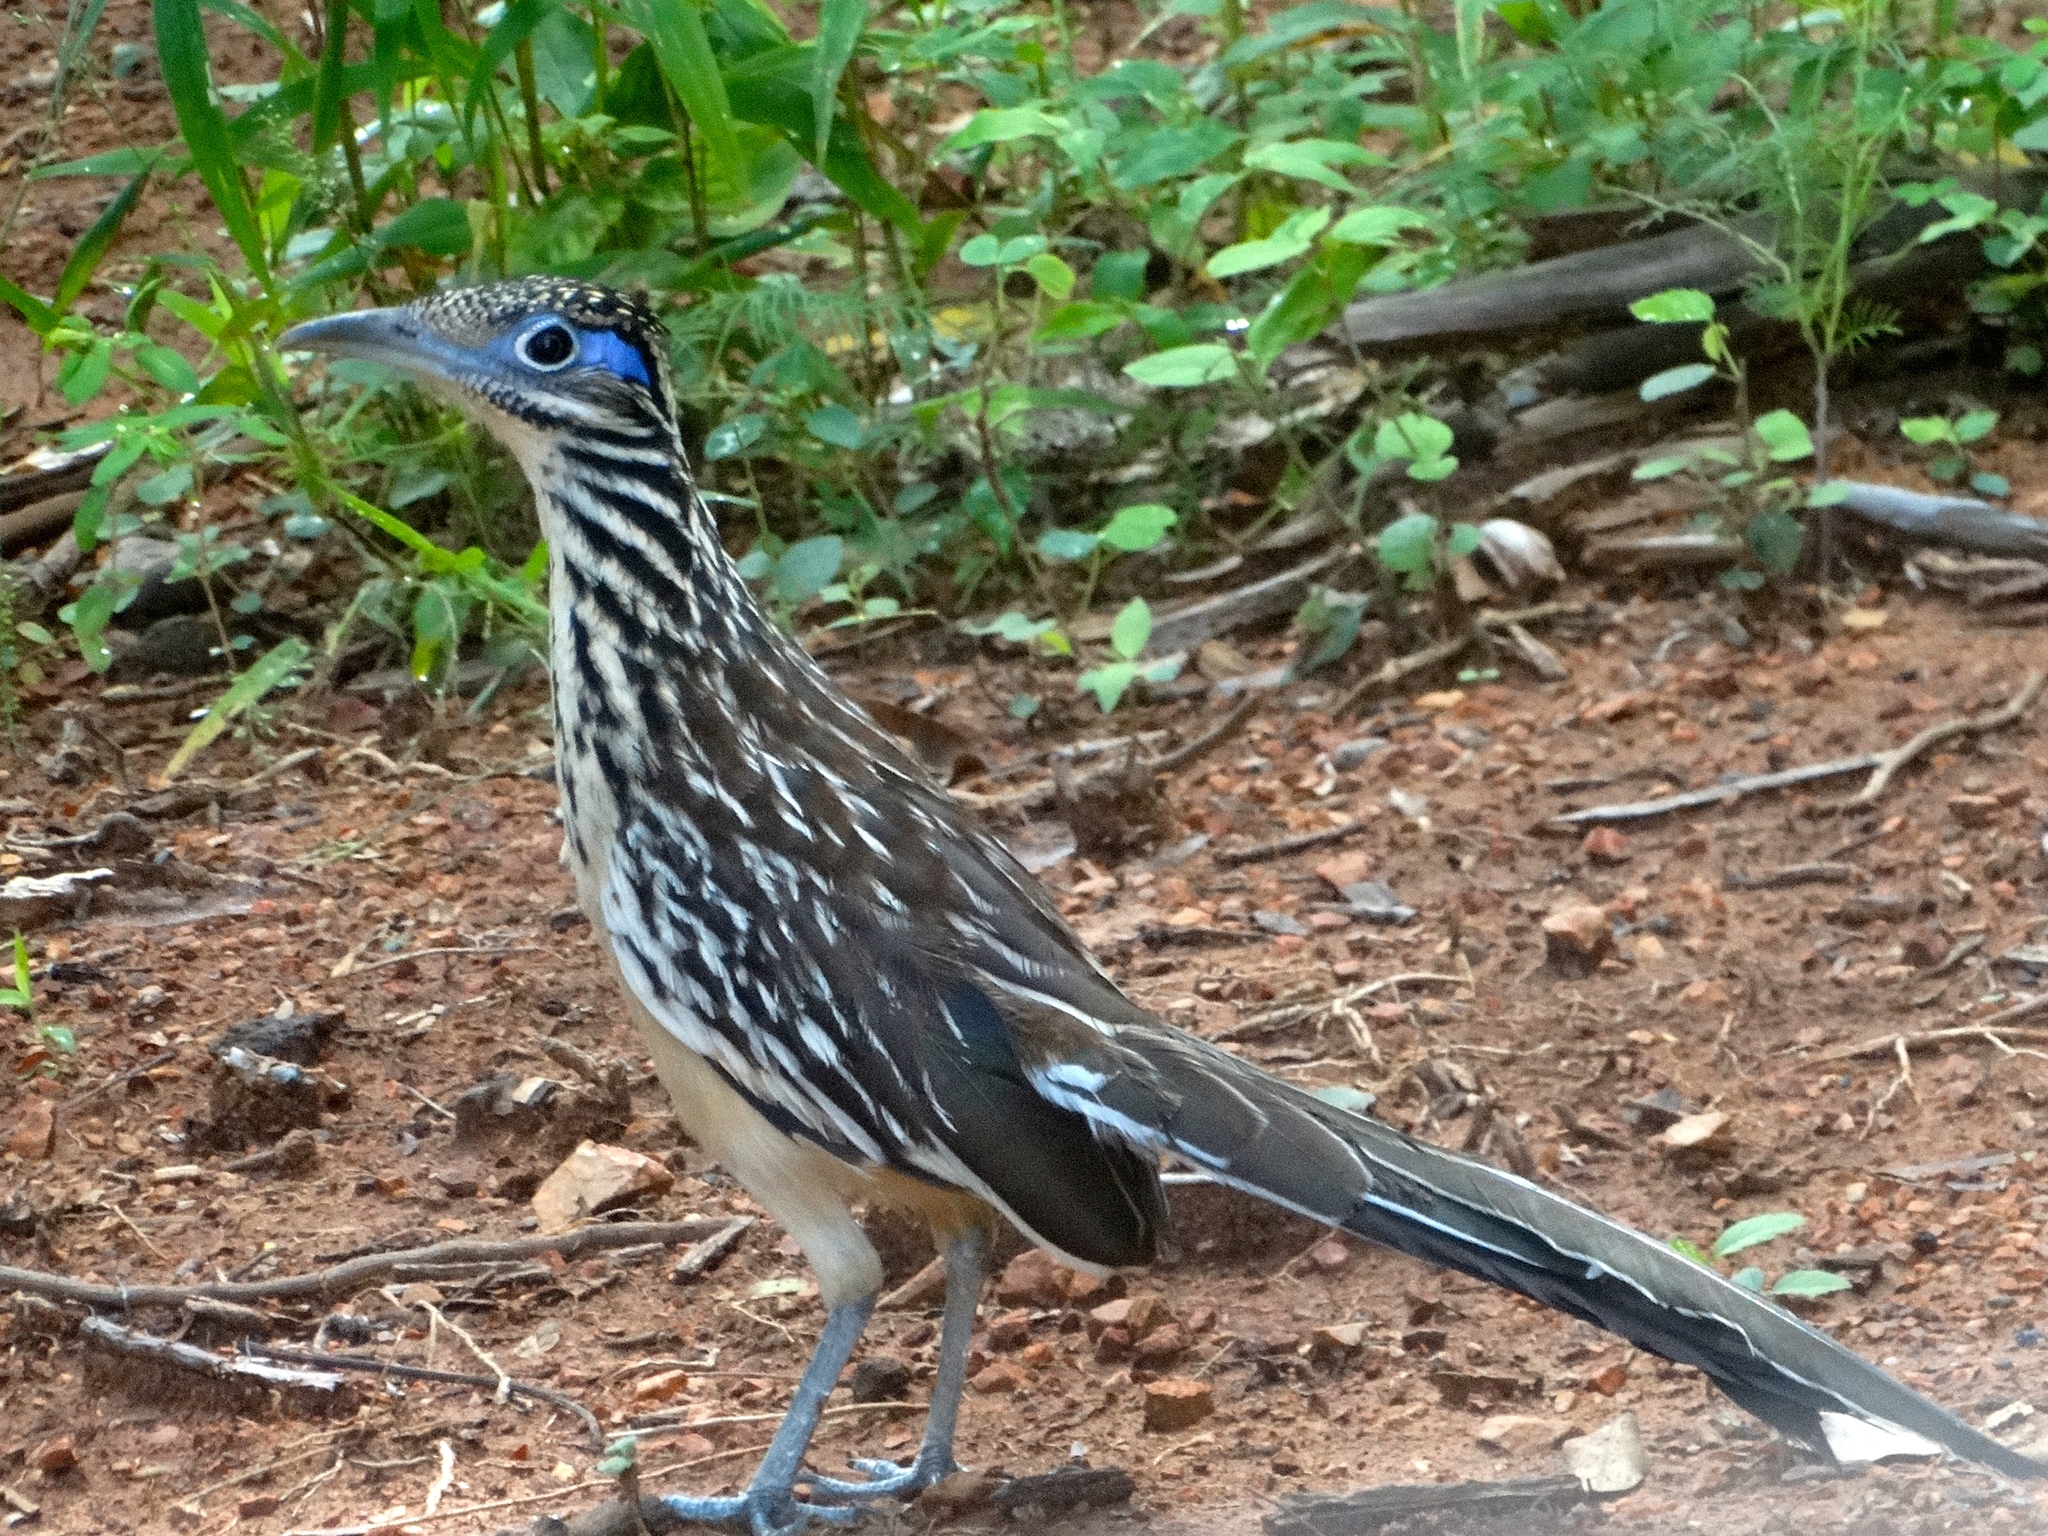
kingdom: Animalia
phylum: Chordata
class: Aves
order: Cuculiformes
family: Cuculidae
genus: Geococcyx
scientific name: Geococcyx velox
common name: Lesser roadrunner
